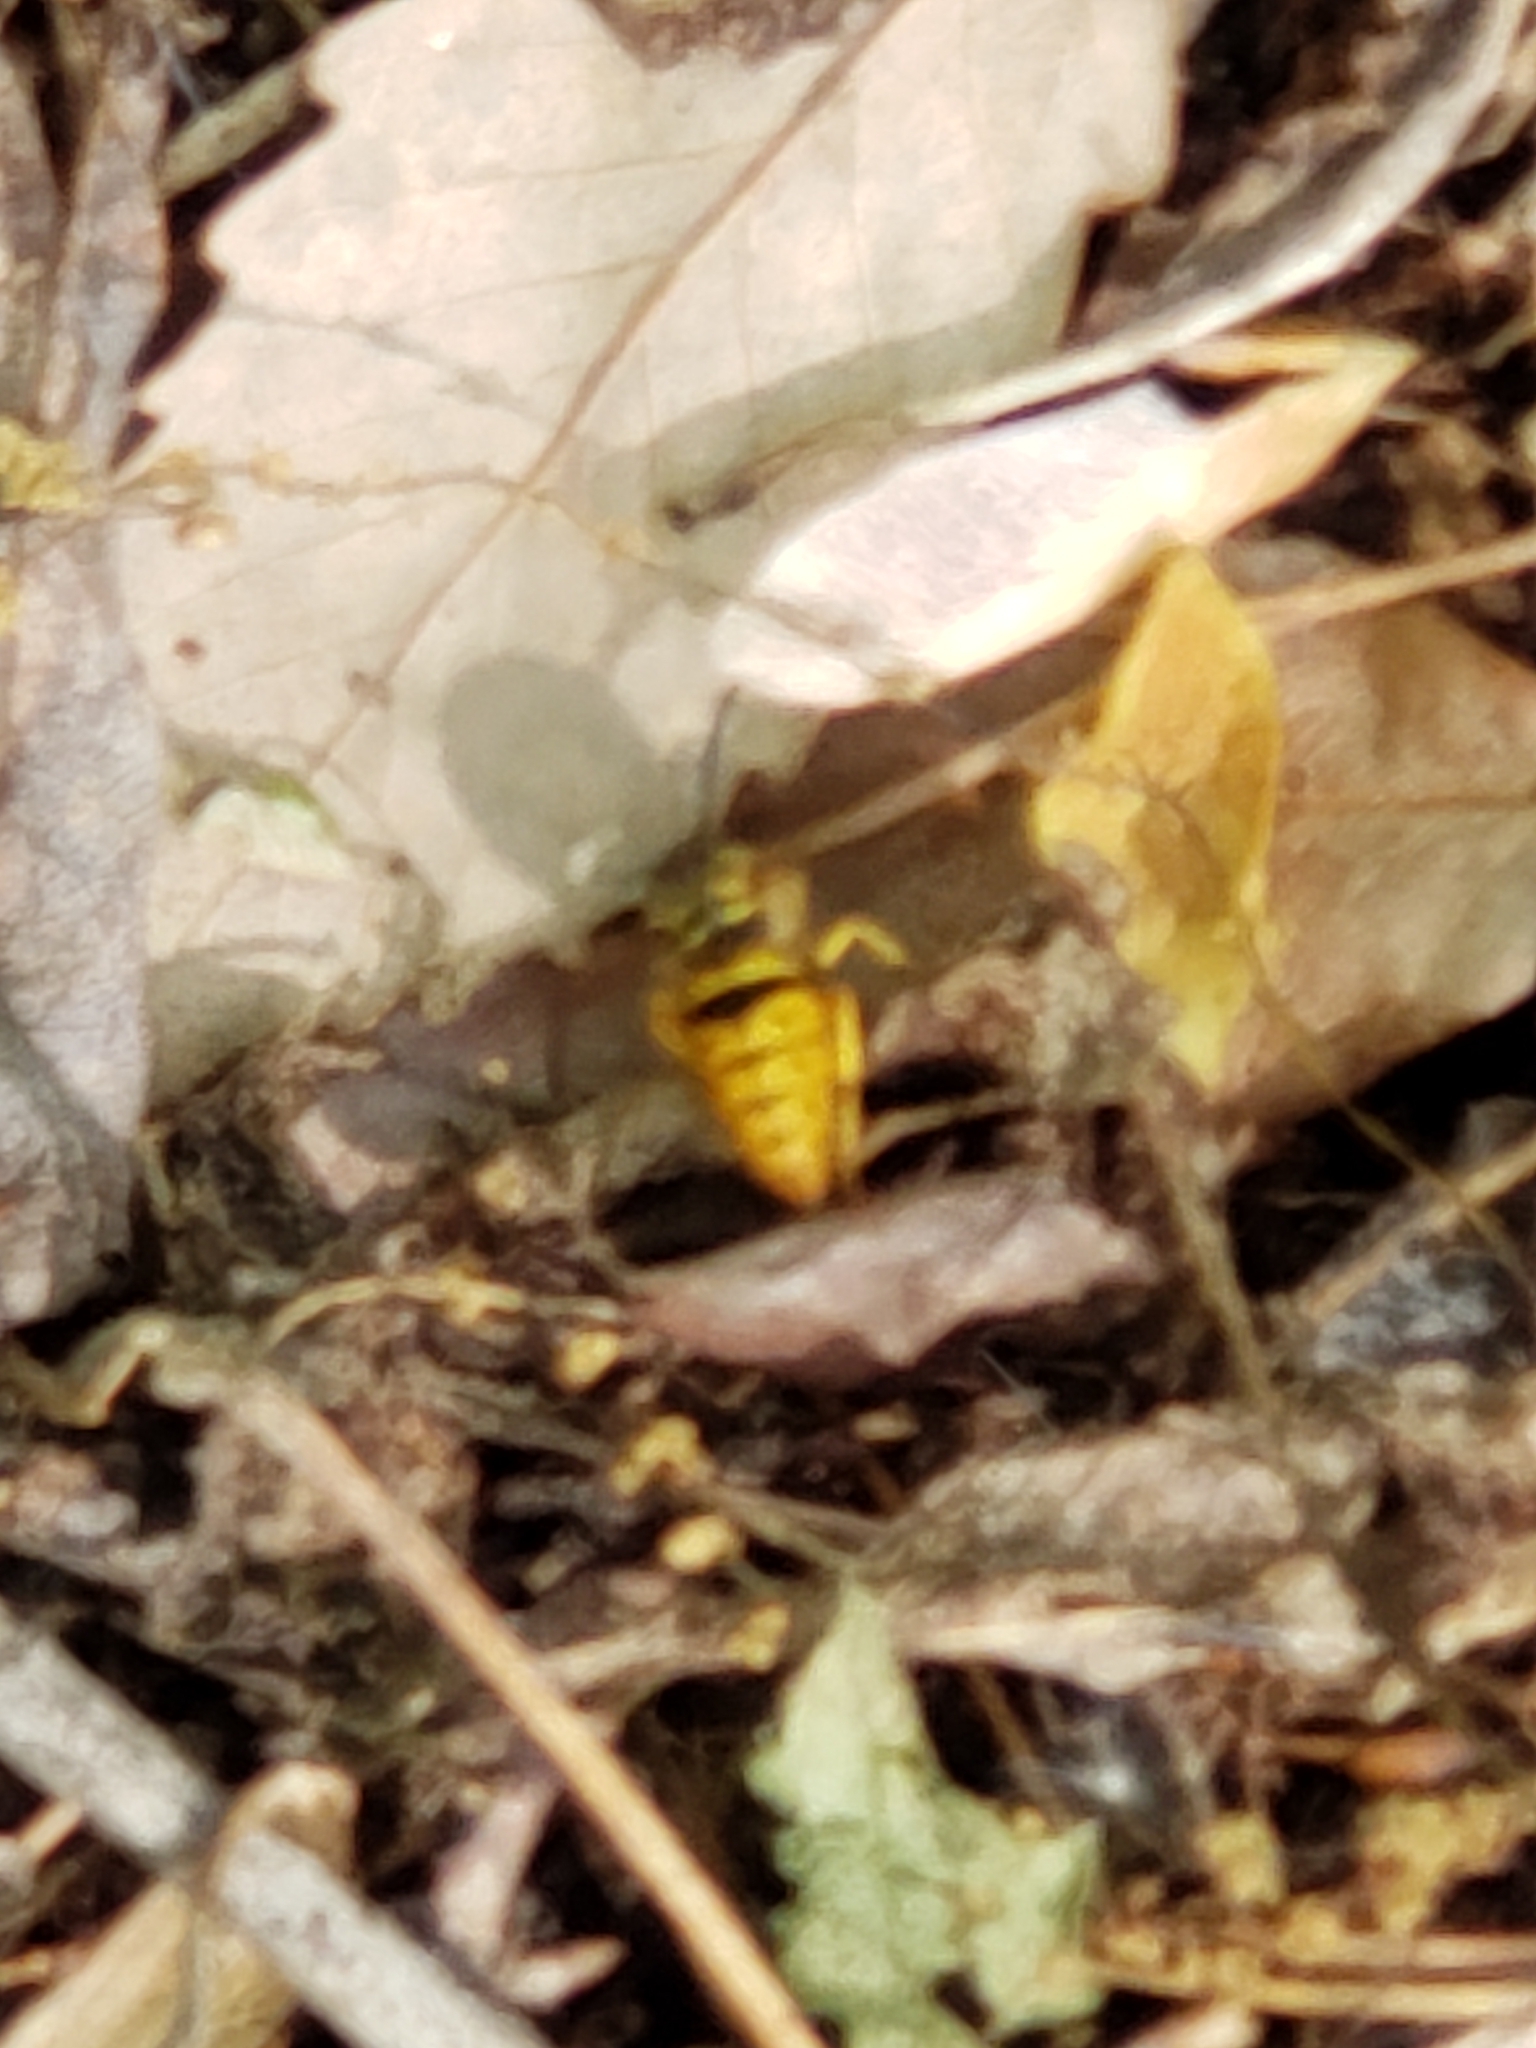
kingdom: Animalia
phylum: Arthropoda
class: Insecta
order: Hymenoptera
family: Vespidae
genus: Vespula
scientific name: Vespula
